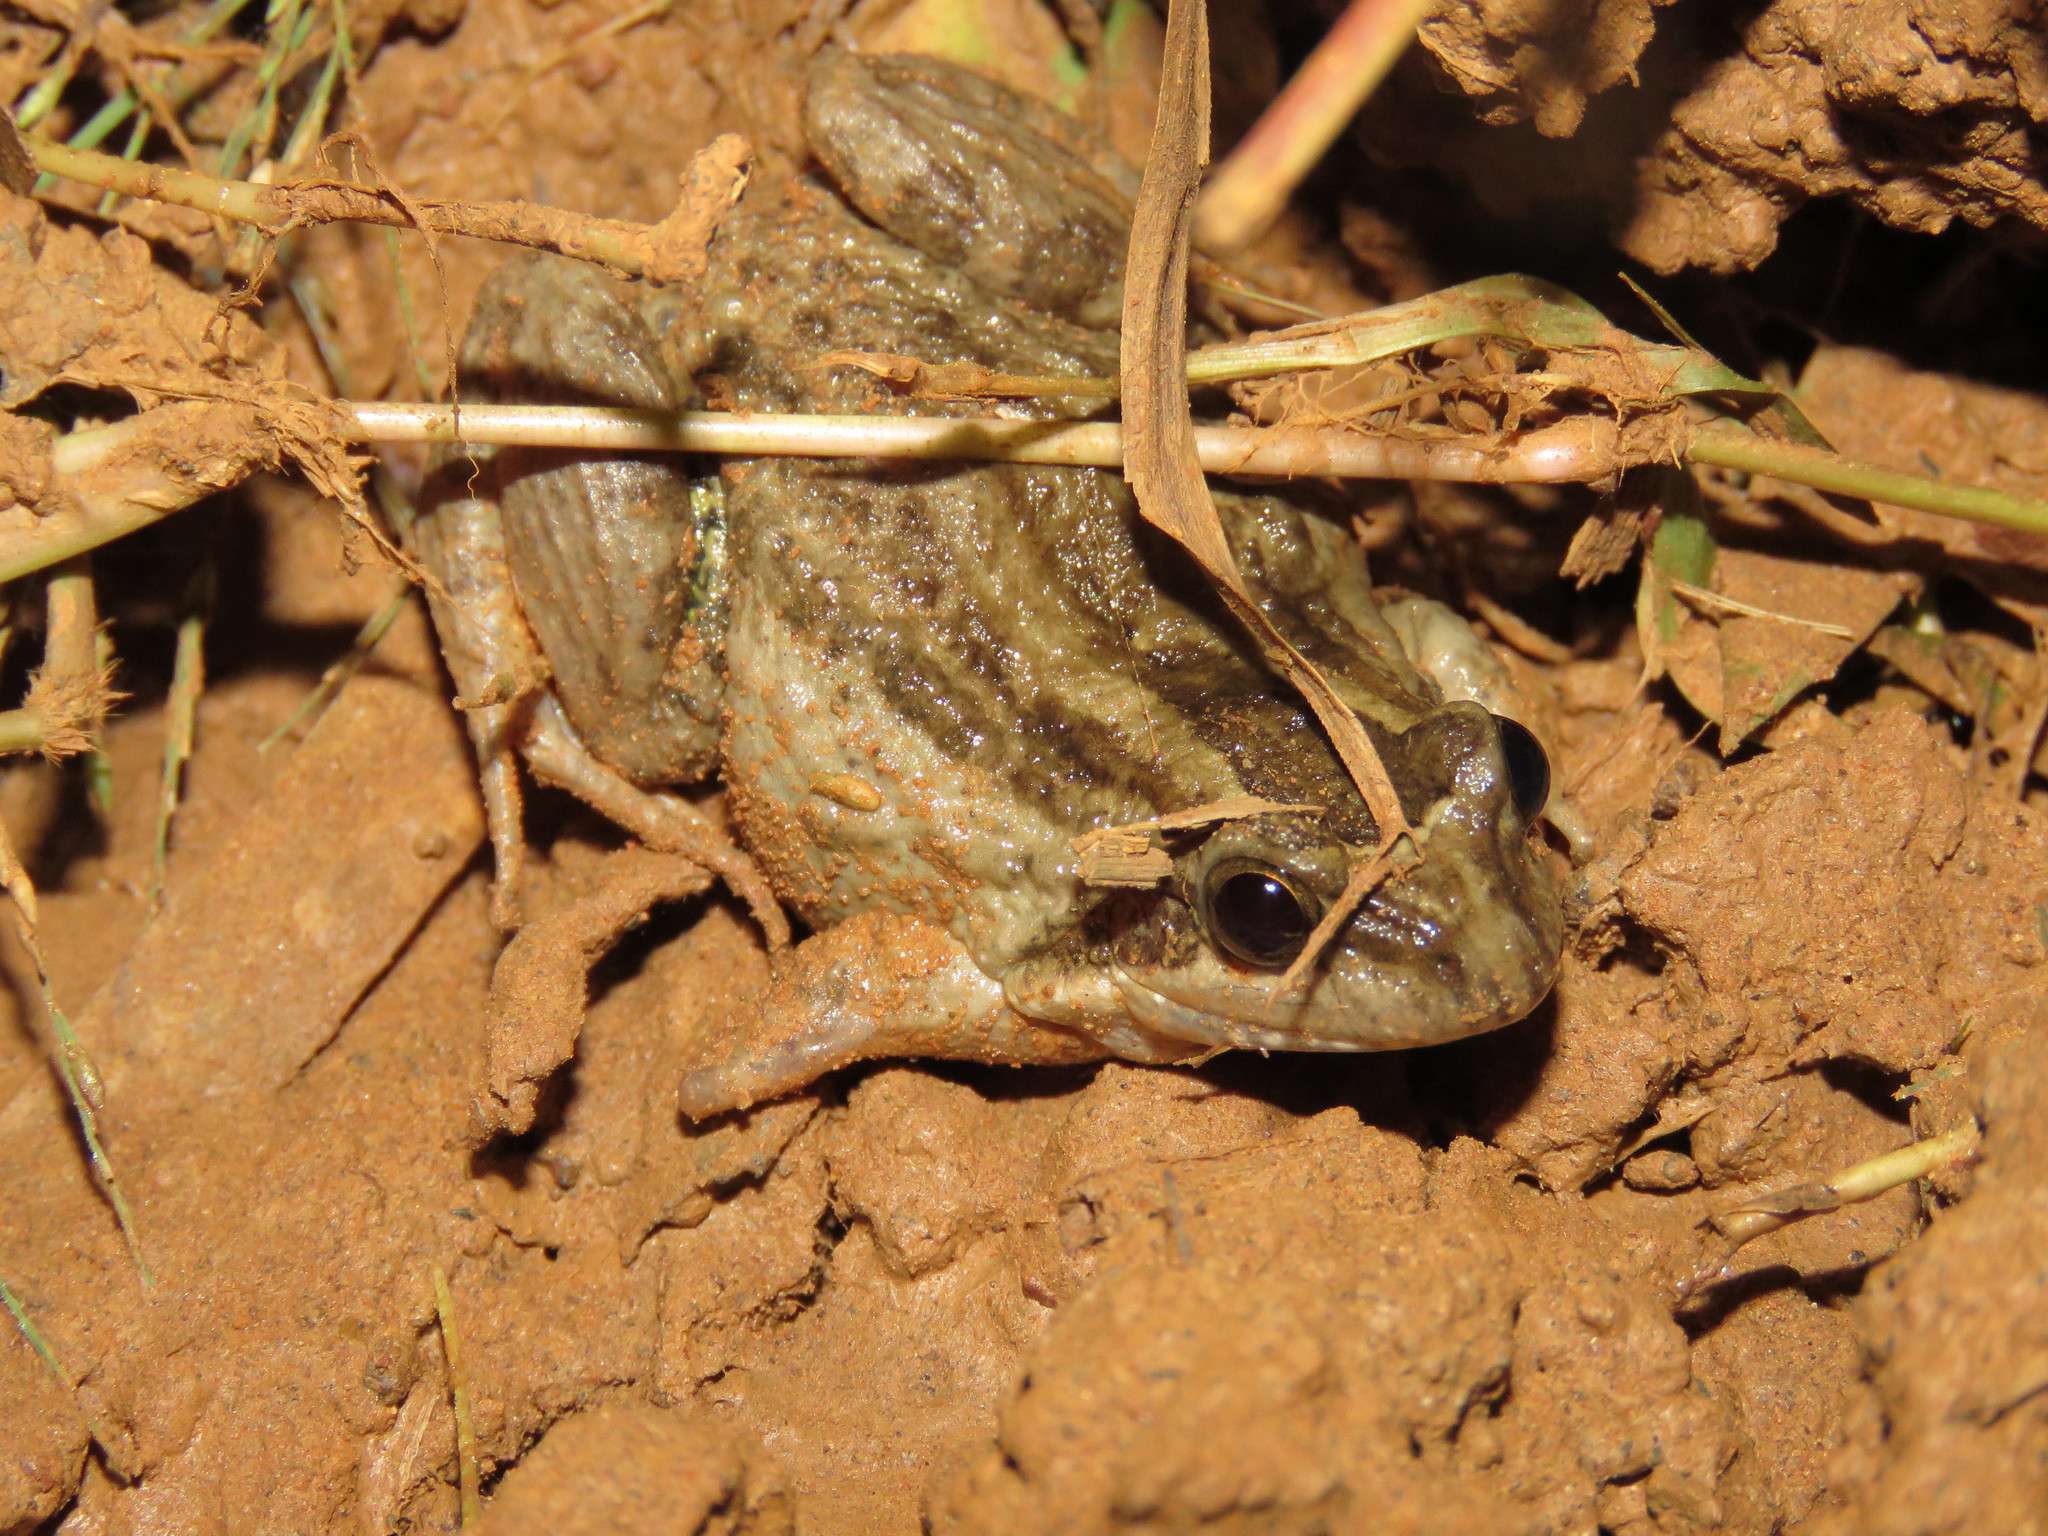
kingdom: Animalia
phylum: Chordata
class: Amphibia
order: Anura
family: Leptodactylidae
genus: Leptodactylus
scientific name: Leptodactylus podicipinus
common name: Pointedbelly frog
